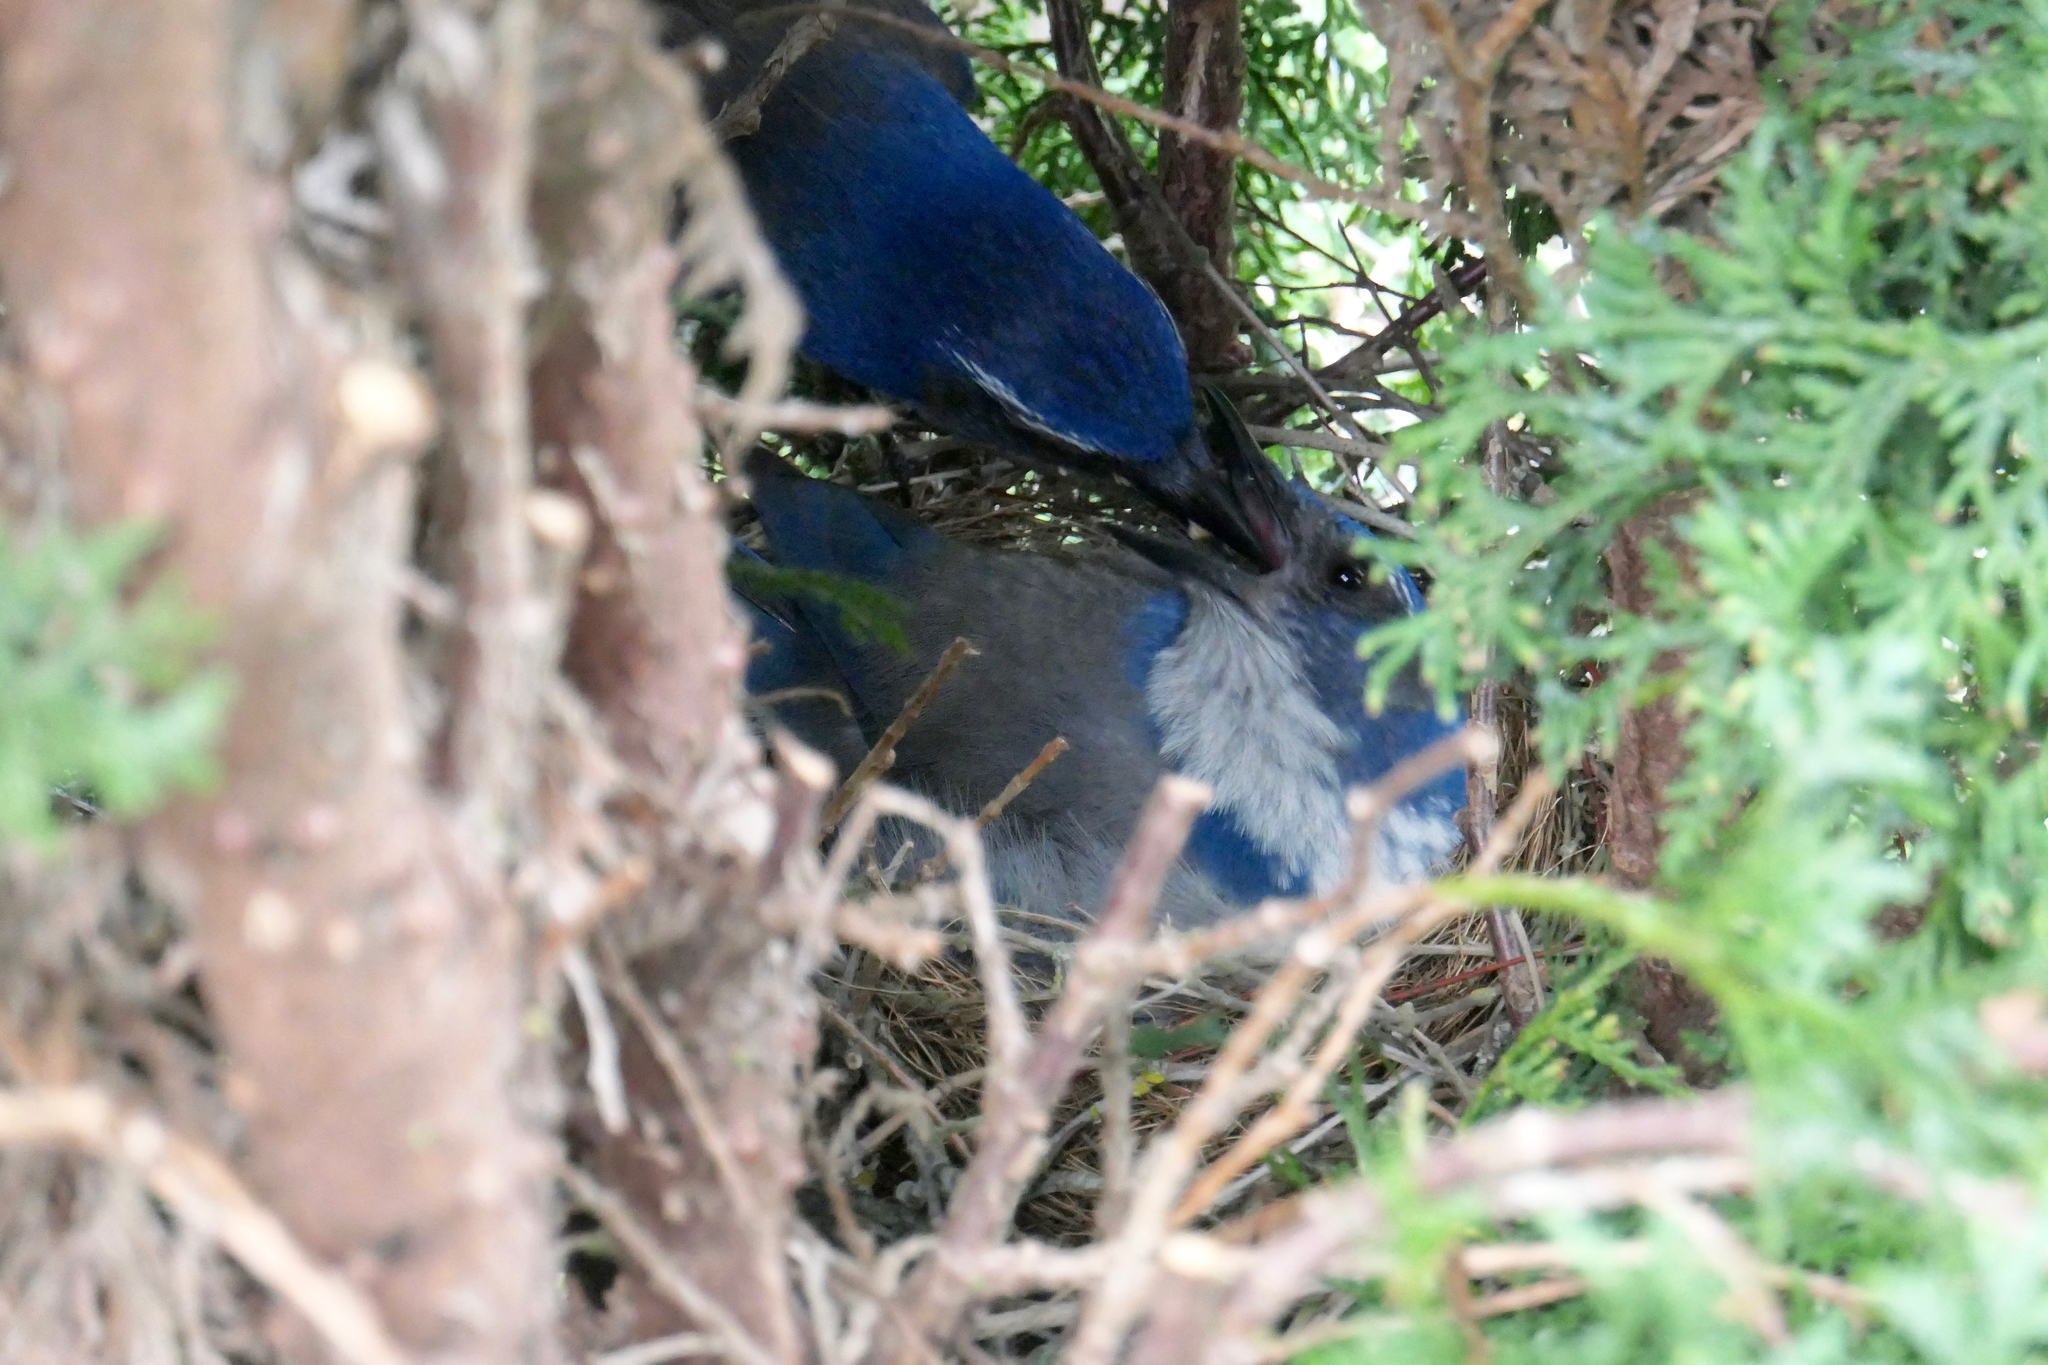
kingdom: Animalia
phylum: Chordata
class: Aves
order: Passeriformes
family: Corvidae
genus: Aphelocoma
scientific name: Aphelocoma californica
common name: California scrub-jay
